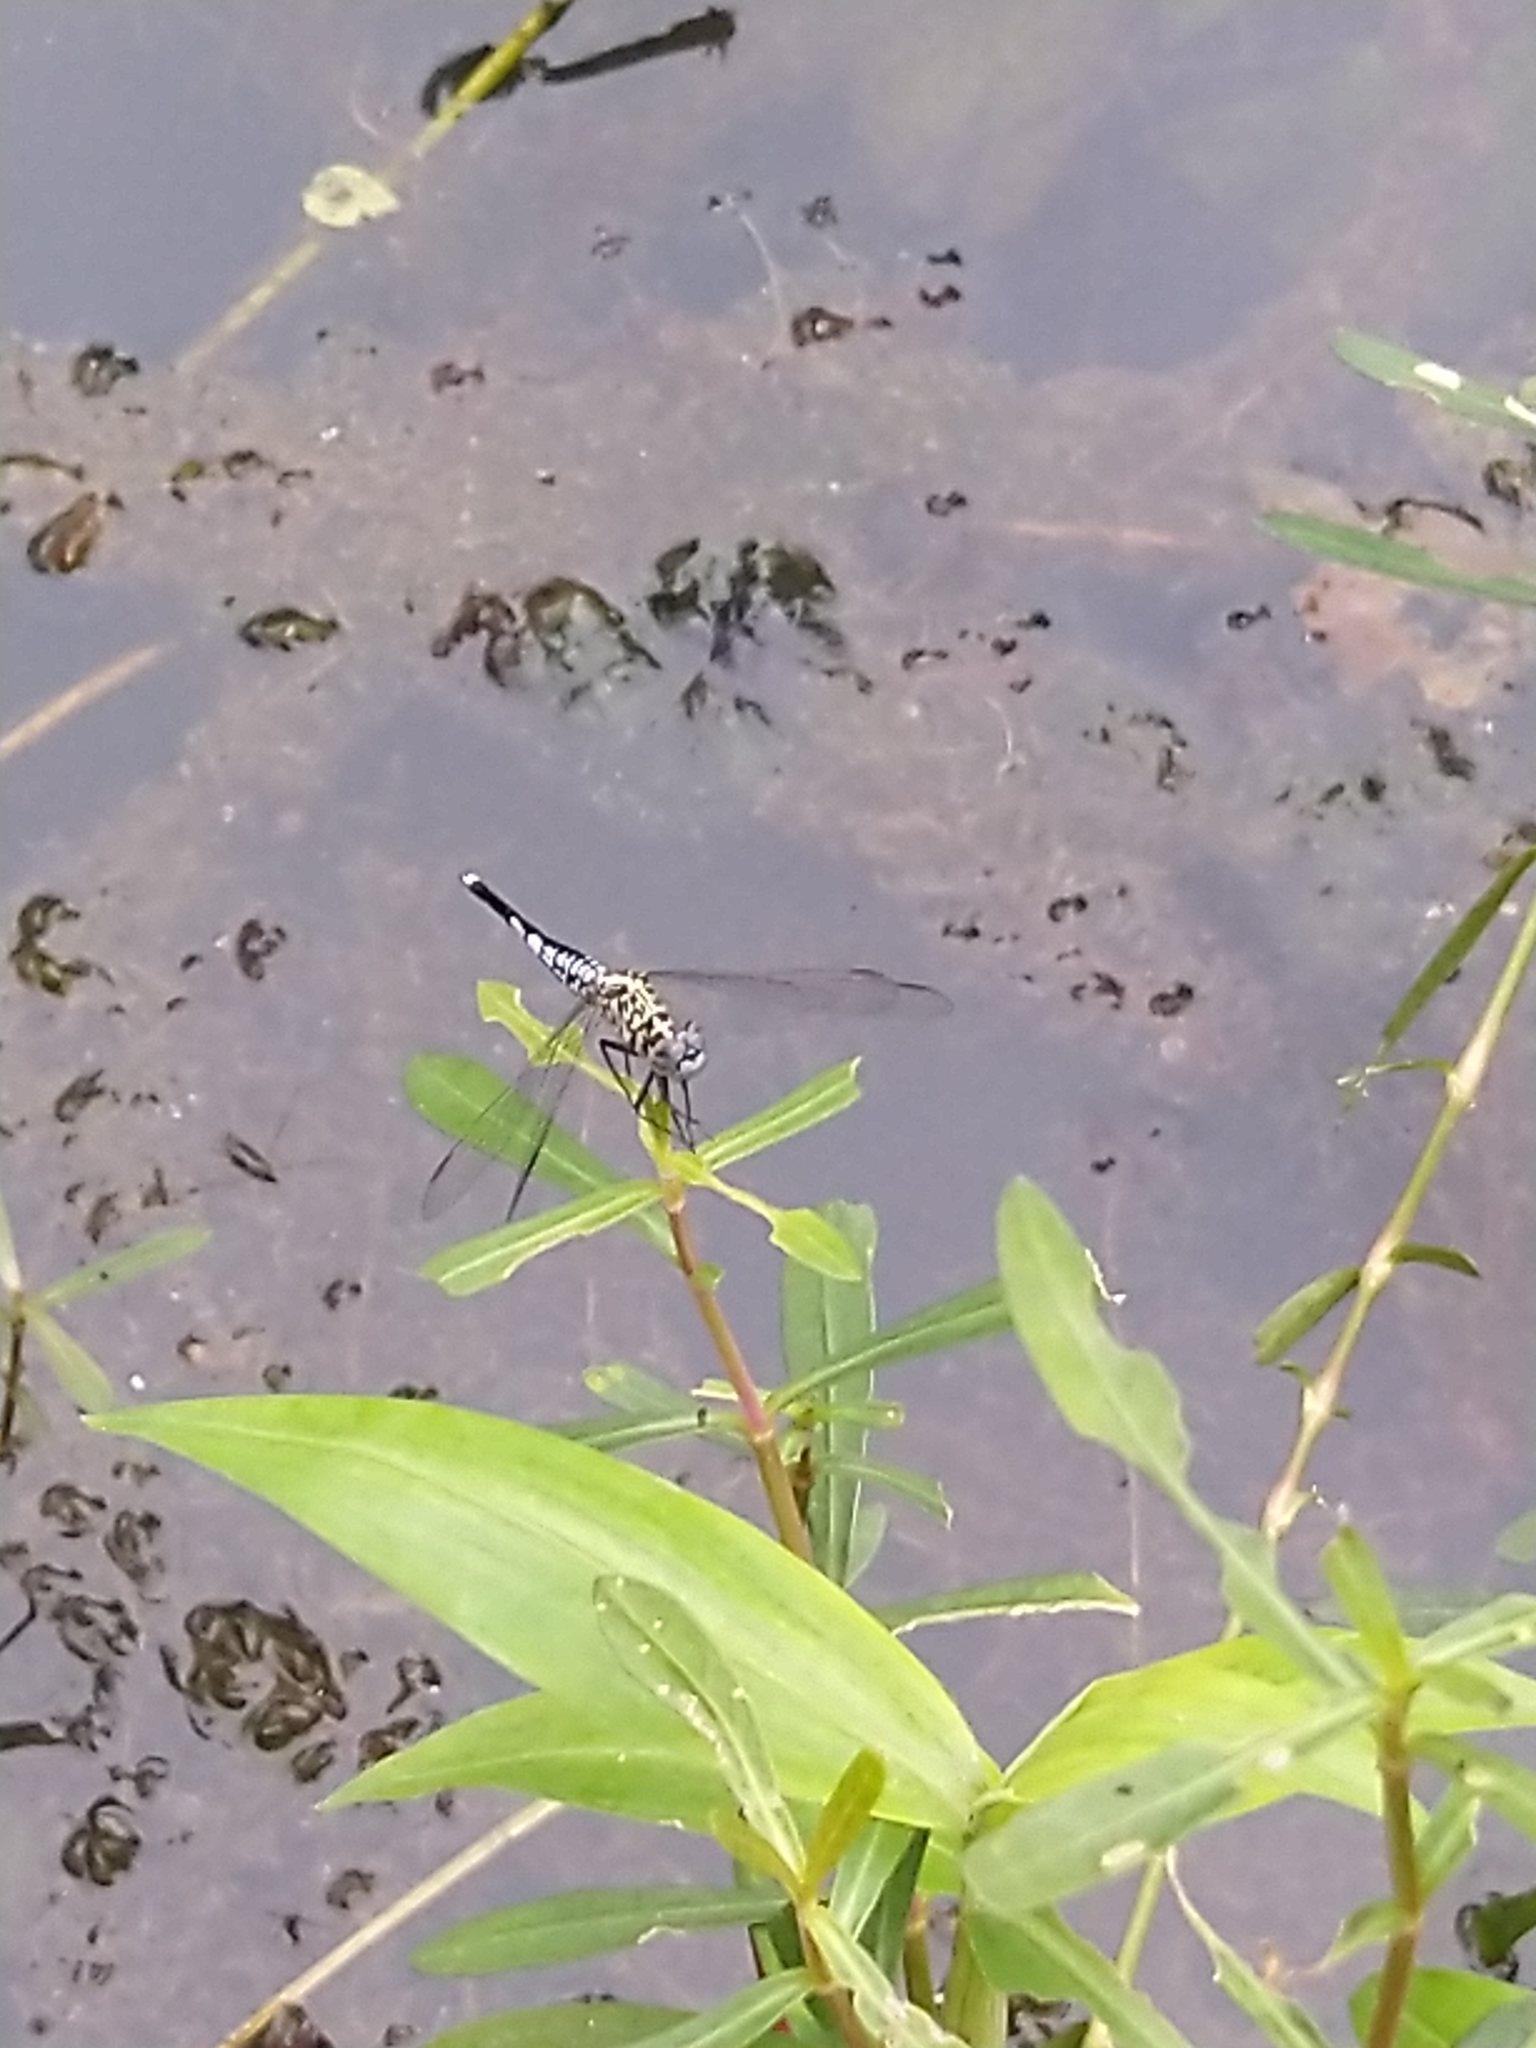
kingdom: Animalia
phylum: Arthropoda
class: Insecta
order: Odonata
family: Libellulidae
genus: Acisoma
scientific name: Acisoma panorpoides
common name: Asian pintail
